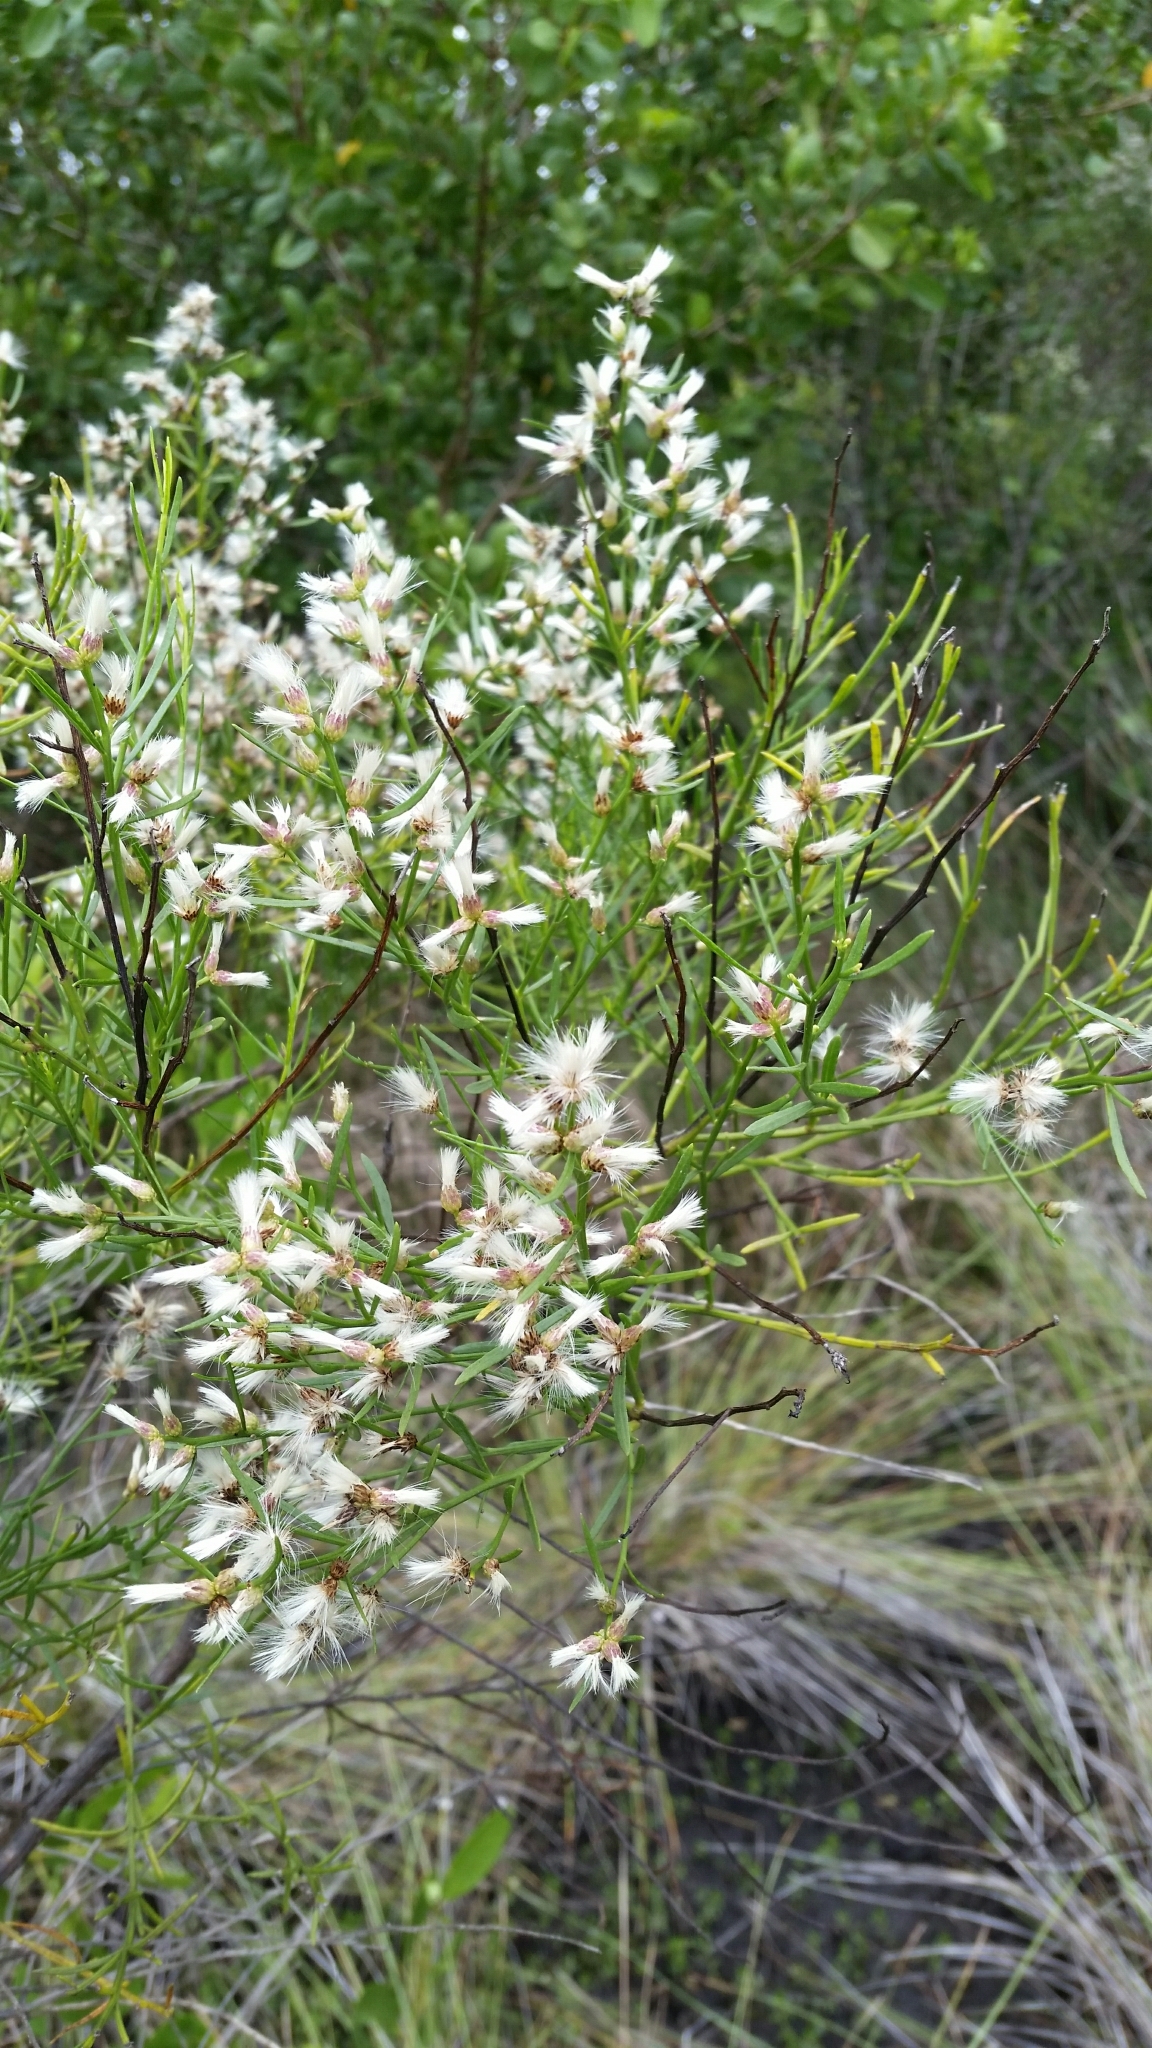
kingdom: Plantae
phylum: Tracheophyta
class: Magnoliopsida
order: Asterales
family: Asteraceae
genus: Baccharis
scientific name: Baccharis angustifolia
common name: Narrow-leaf baccharis
